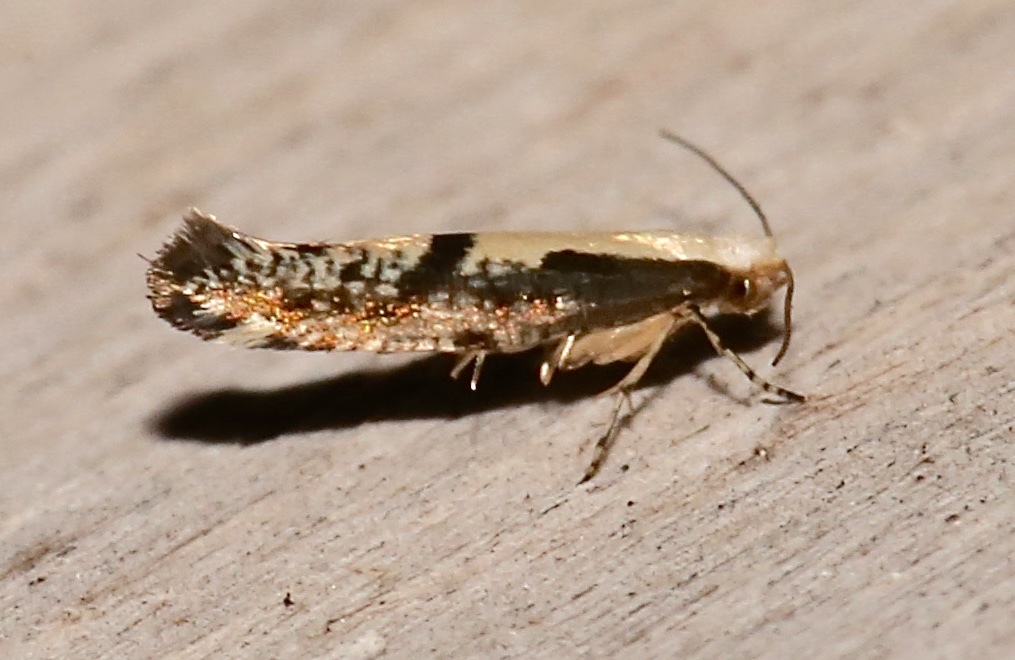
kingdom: Animalia
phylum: Arthropoda
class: Insecta
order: Lepidoptera
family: Argyresthiidae
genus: Argyresthia
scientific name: Argyresthia conjugella
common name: Apple fruit moth
